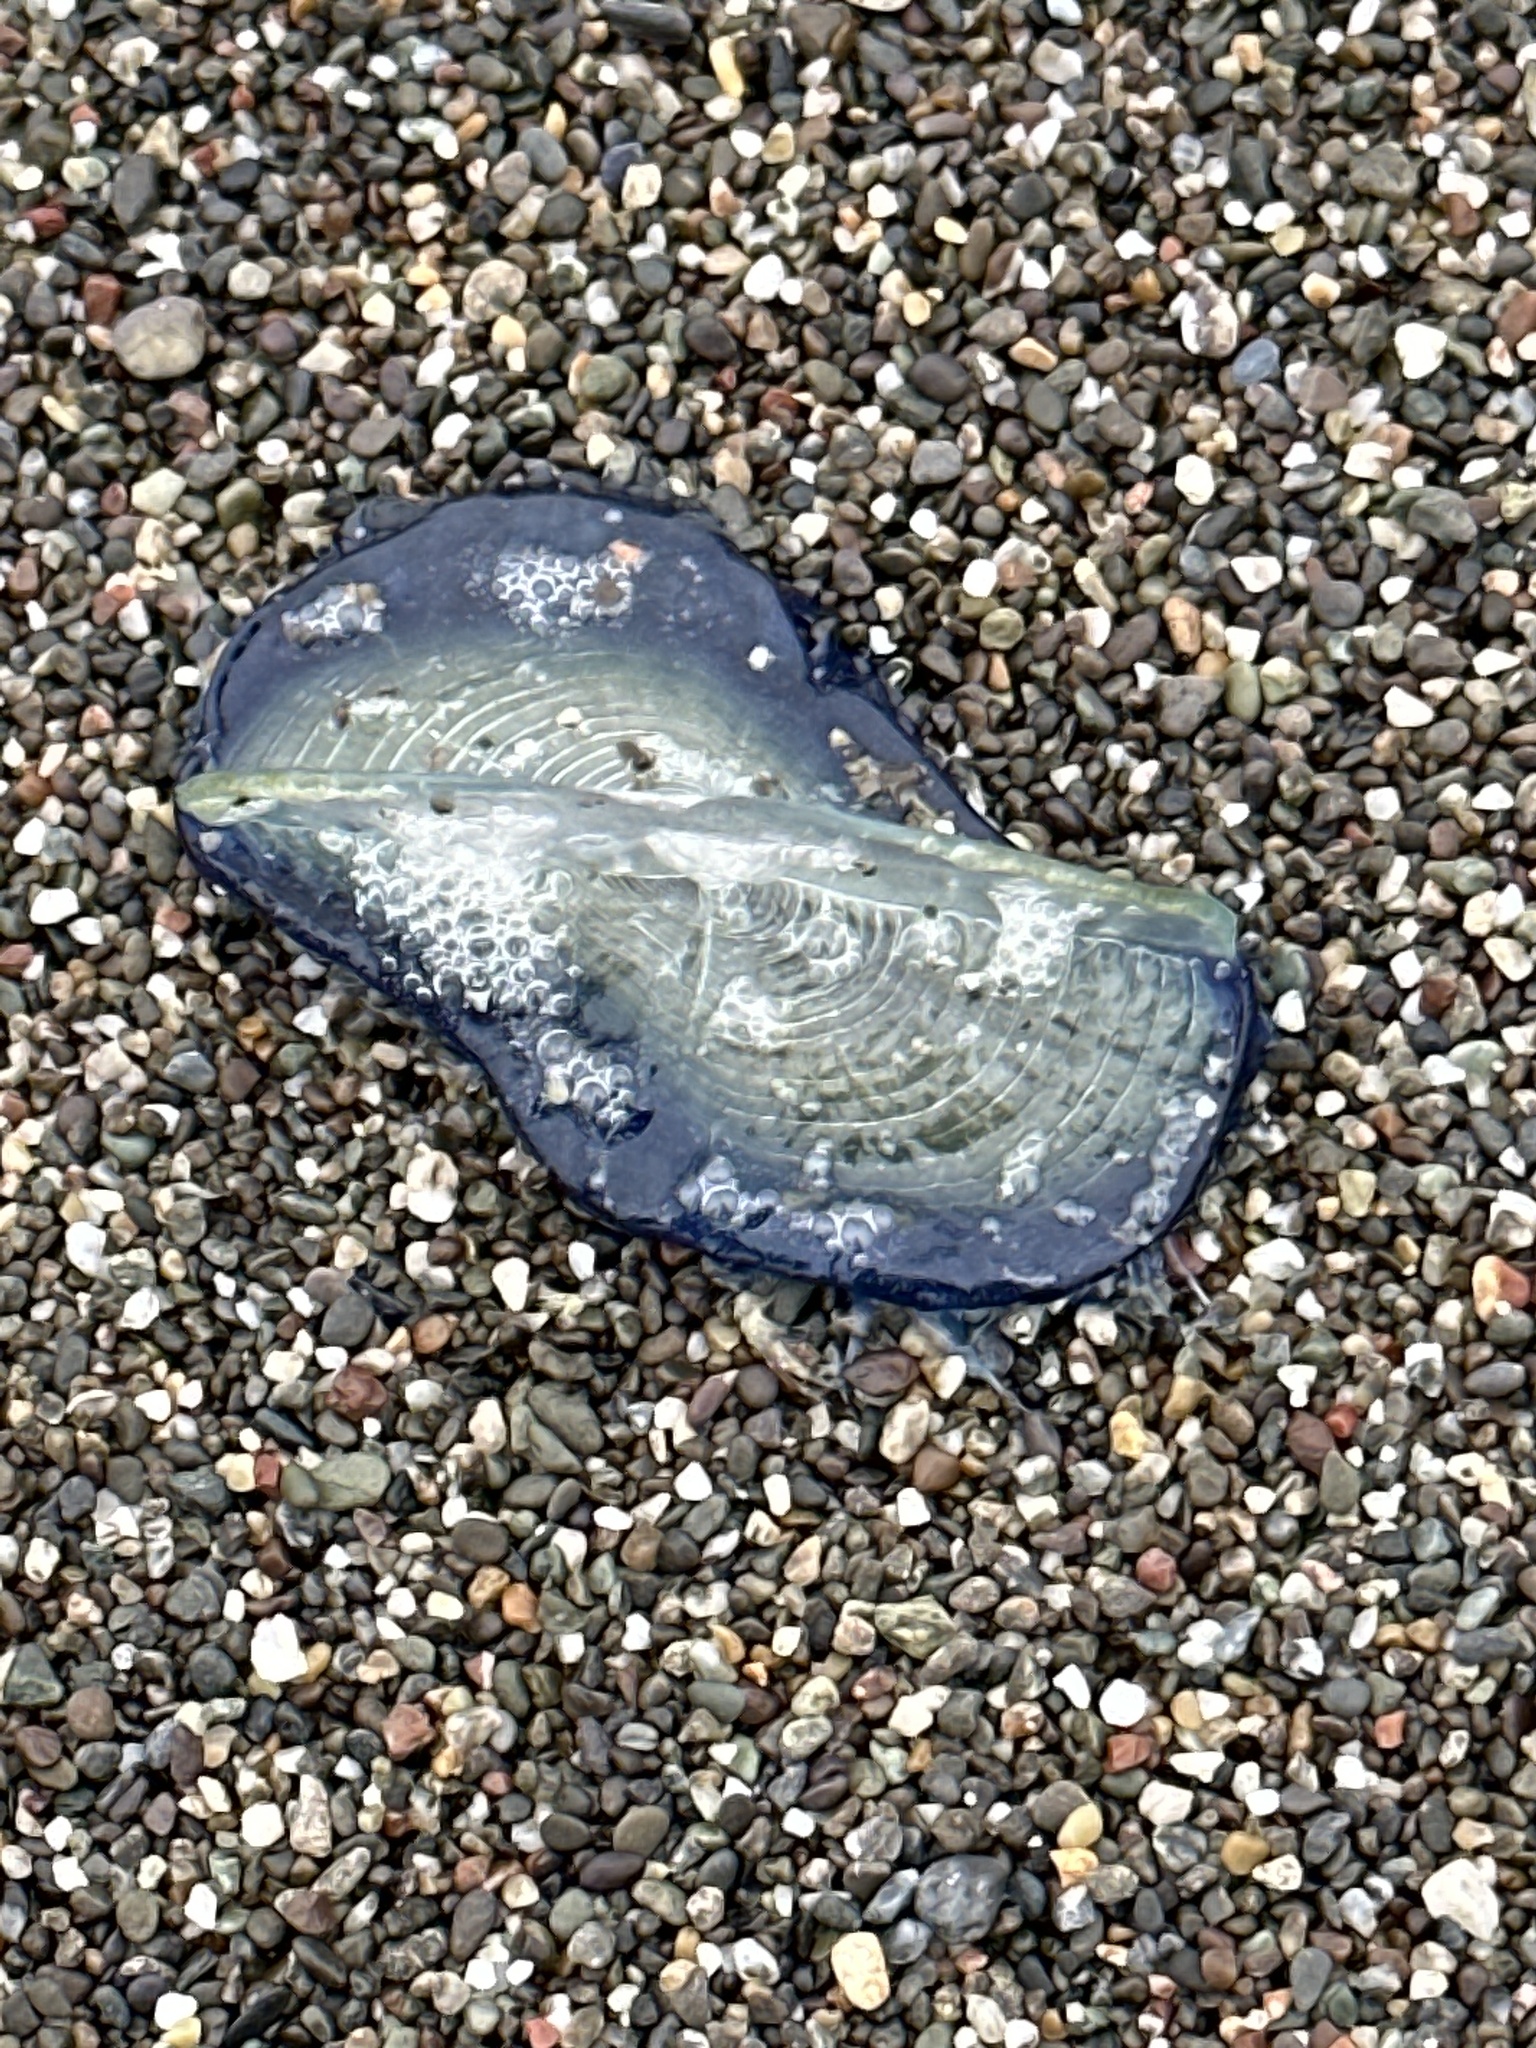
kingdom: Animalia
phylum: Cnidaria
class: Hydrozoa
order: Anthoathecata
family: Porpitidae
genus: Velella
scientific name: Velella velella
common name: By-the-wind-sailor
